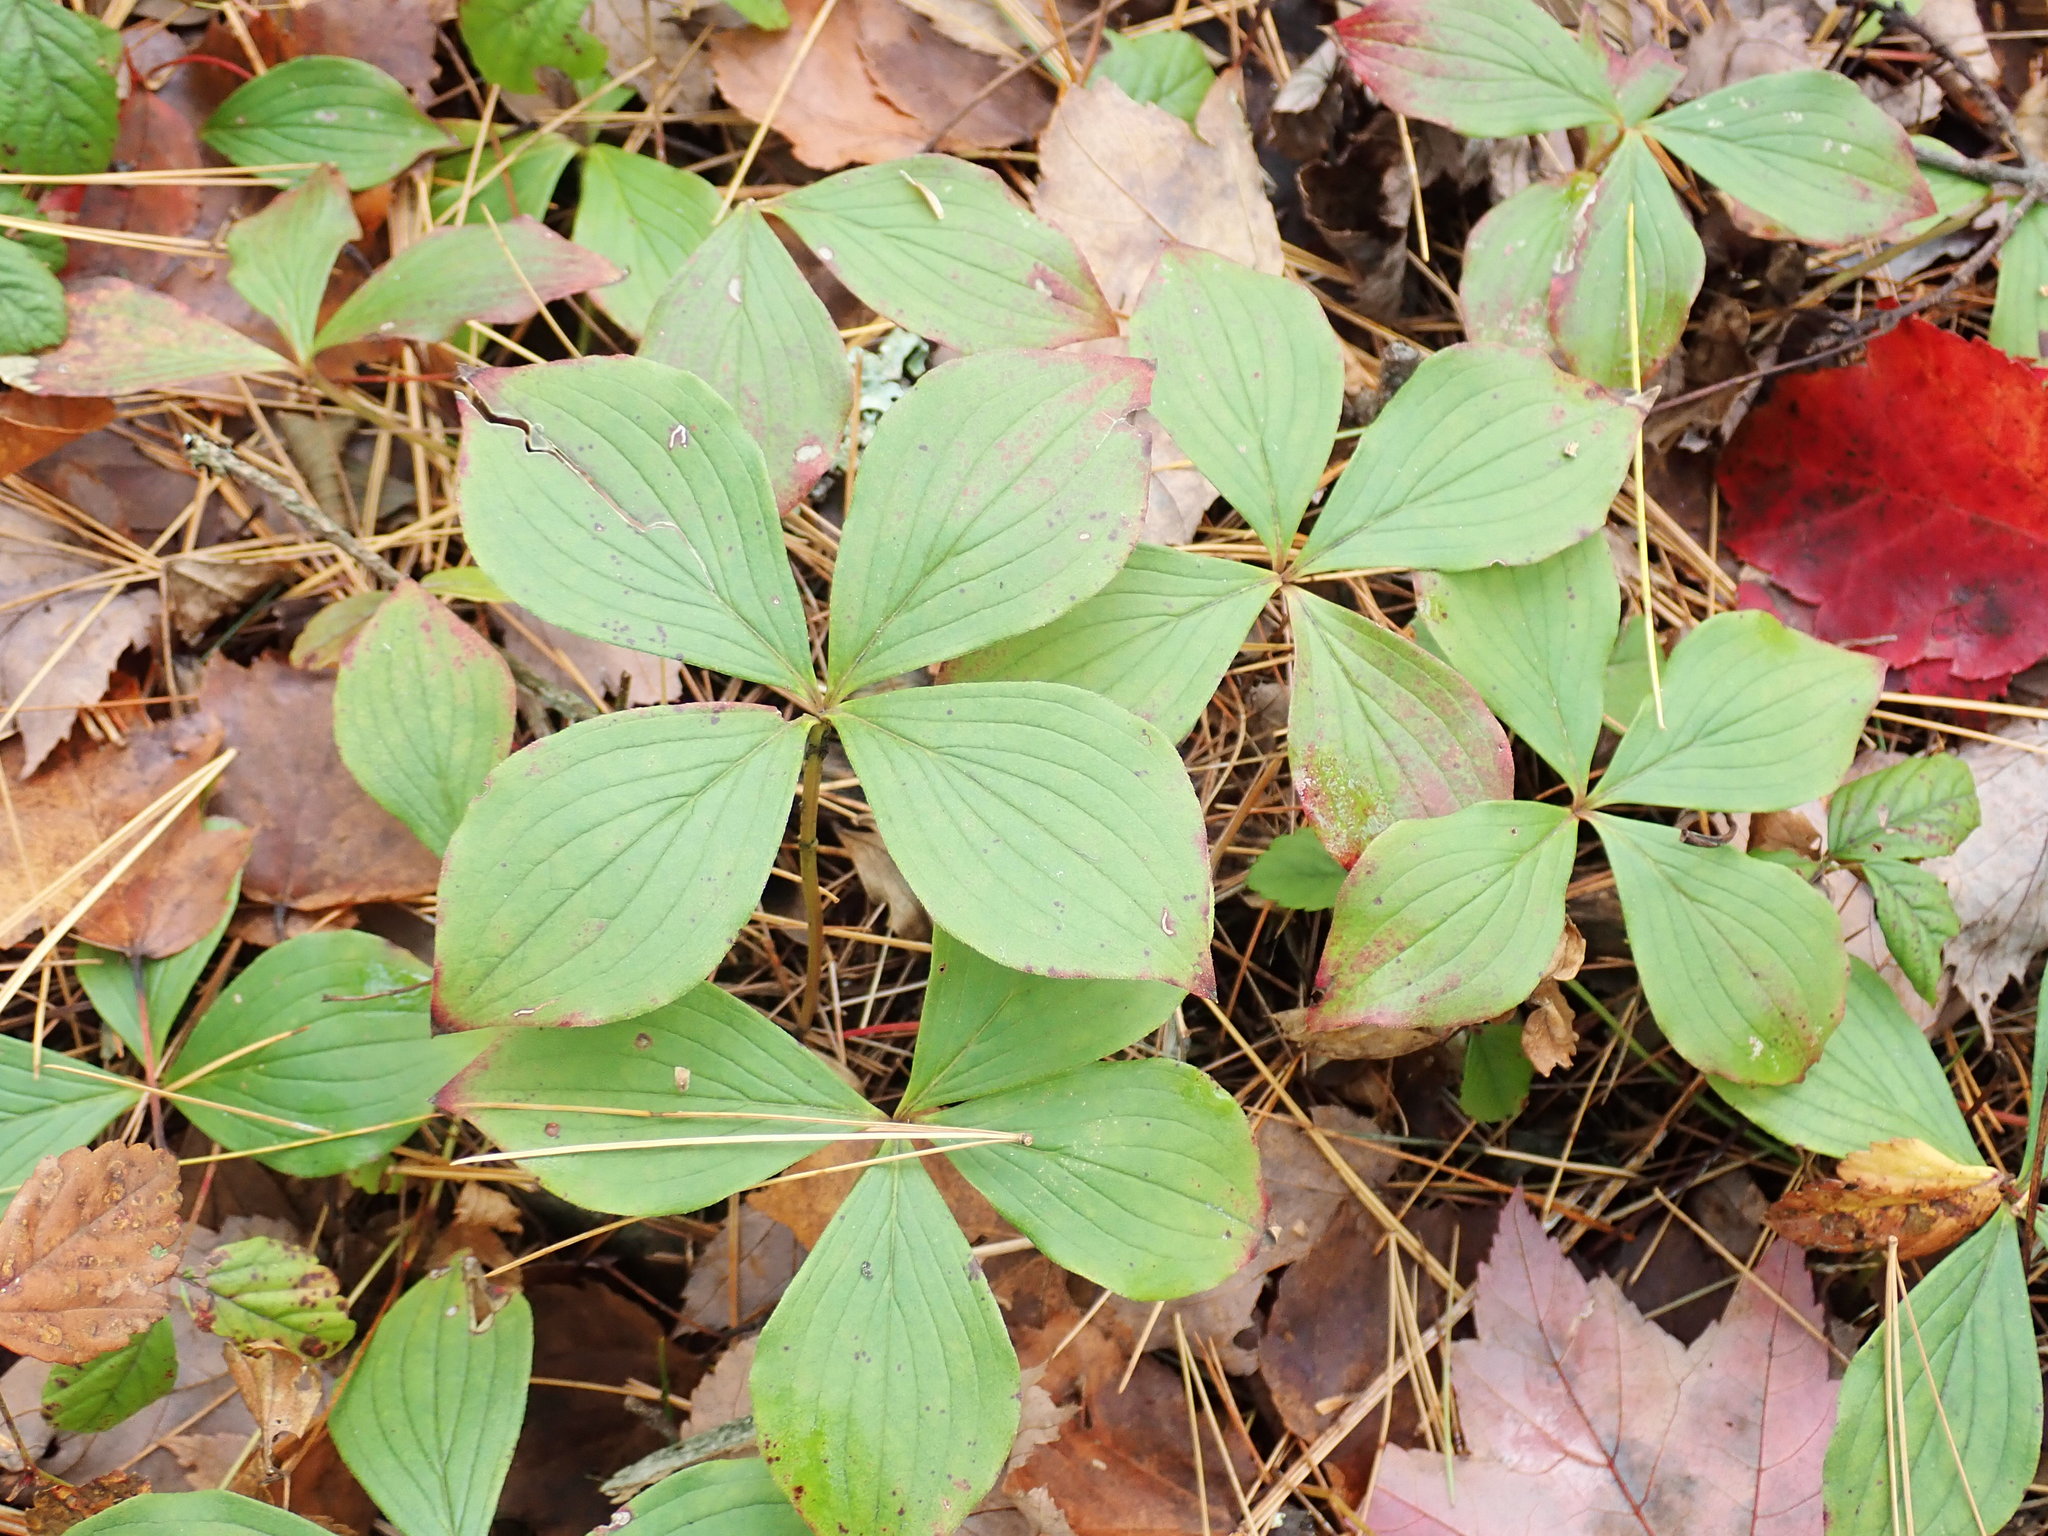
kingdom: Plantae
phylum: Tracheophyta
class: Magnoliopsida
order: Cornales
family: Cornaceae
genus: Cornus
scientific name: Cornus canadensis
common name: Creeping dogwood
